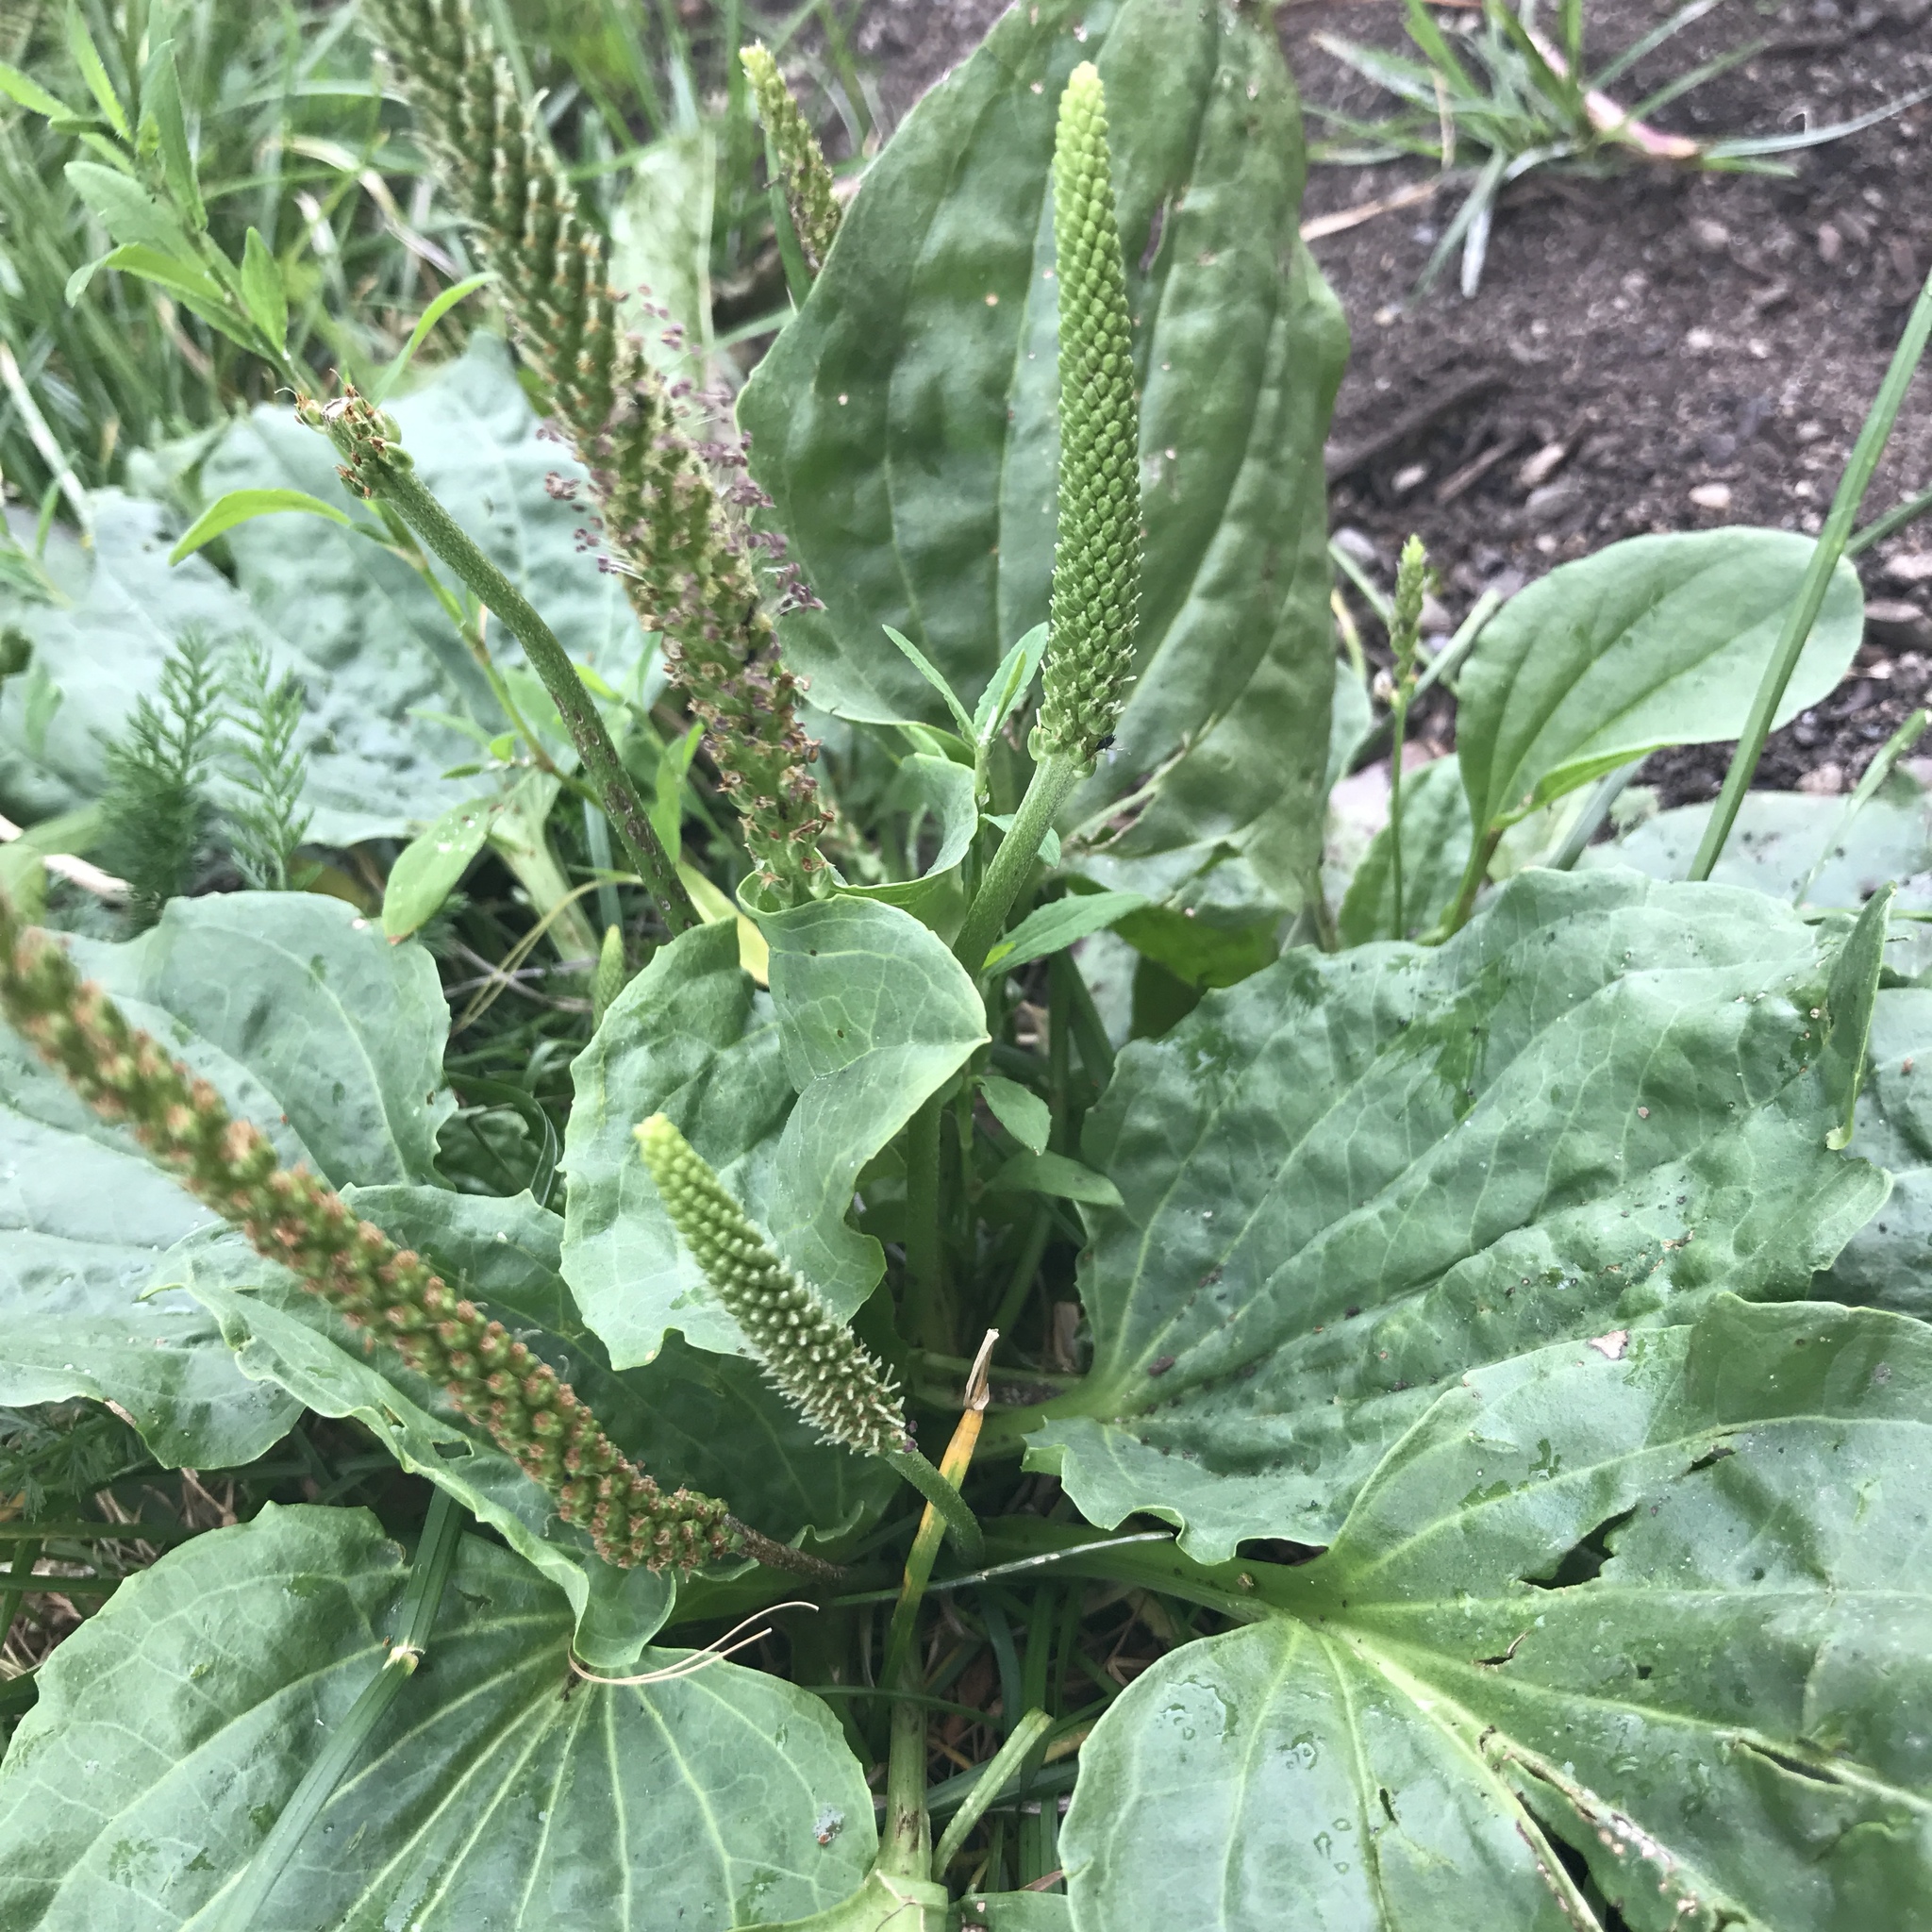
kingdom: Plantae
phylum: Tracheophyta
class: Magnoliopsida
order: Lamiales
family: Plantaginaceae
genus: Plantago
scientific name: Plantago major
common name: Common plantain
